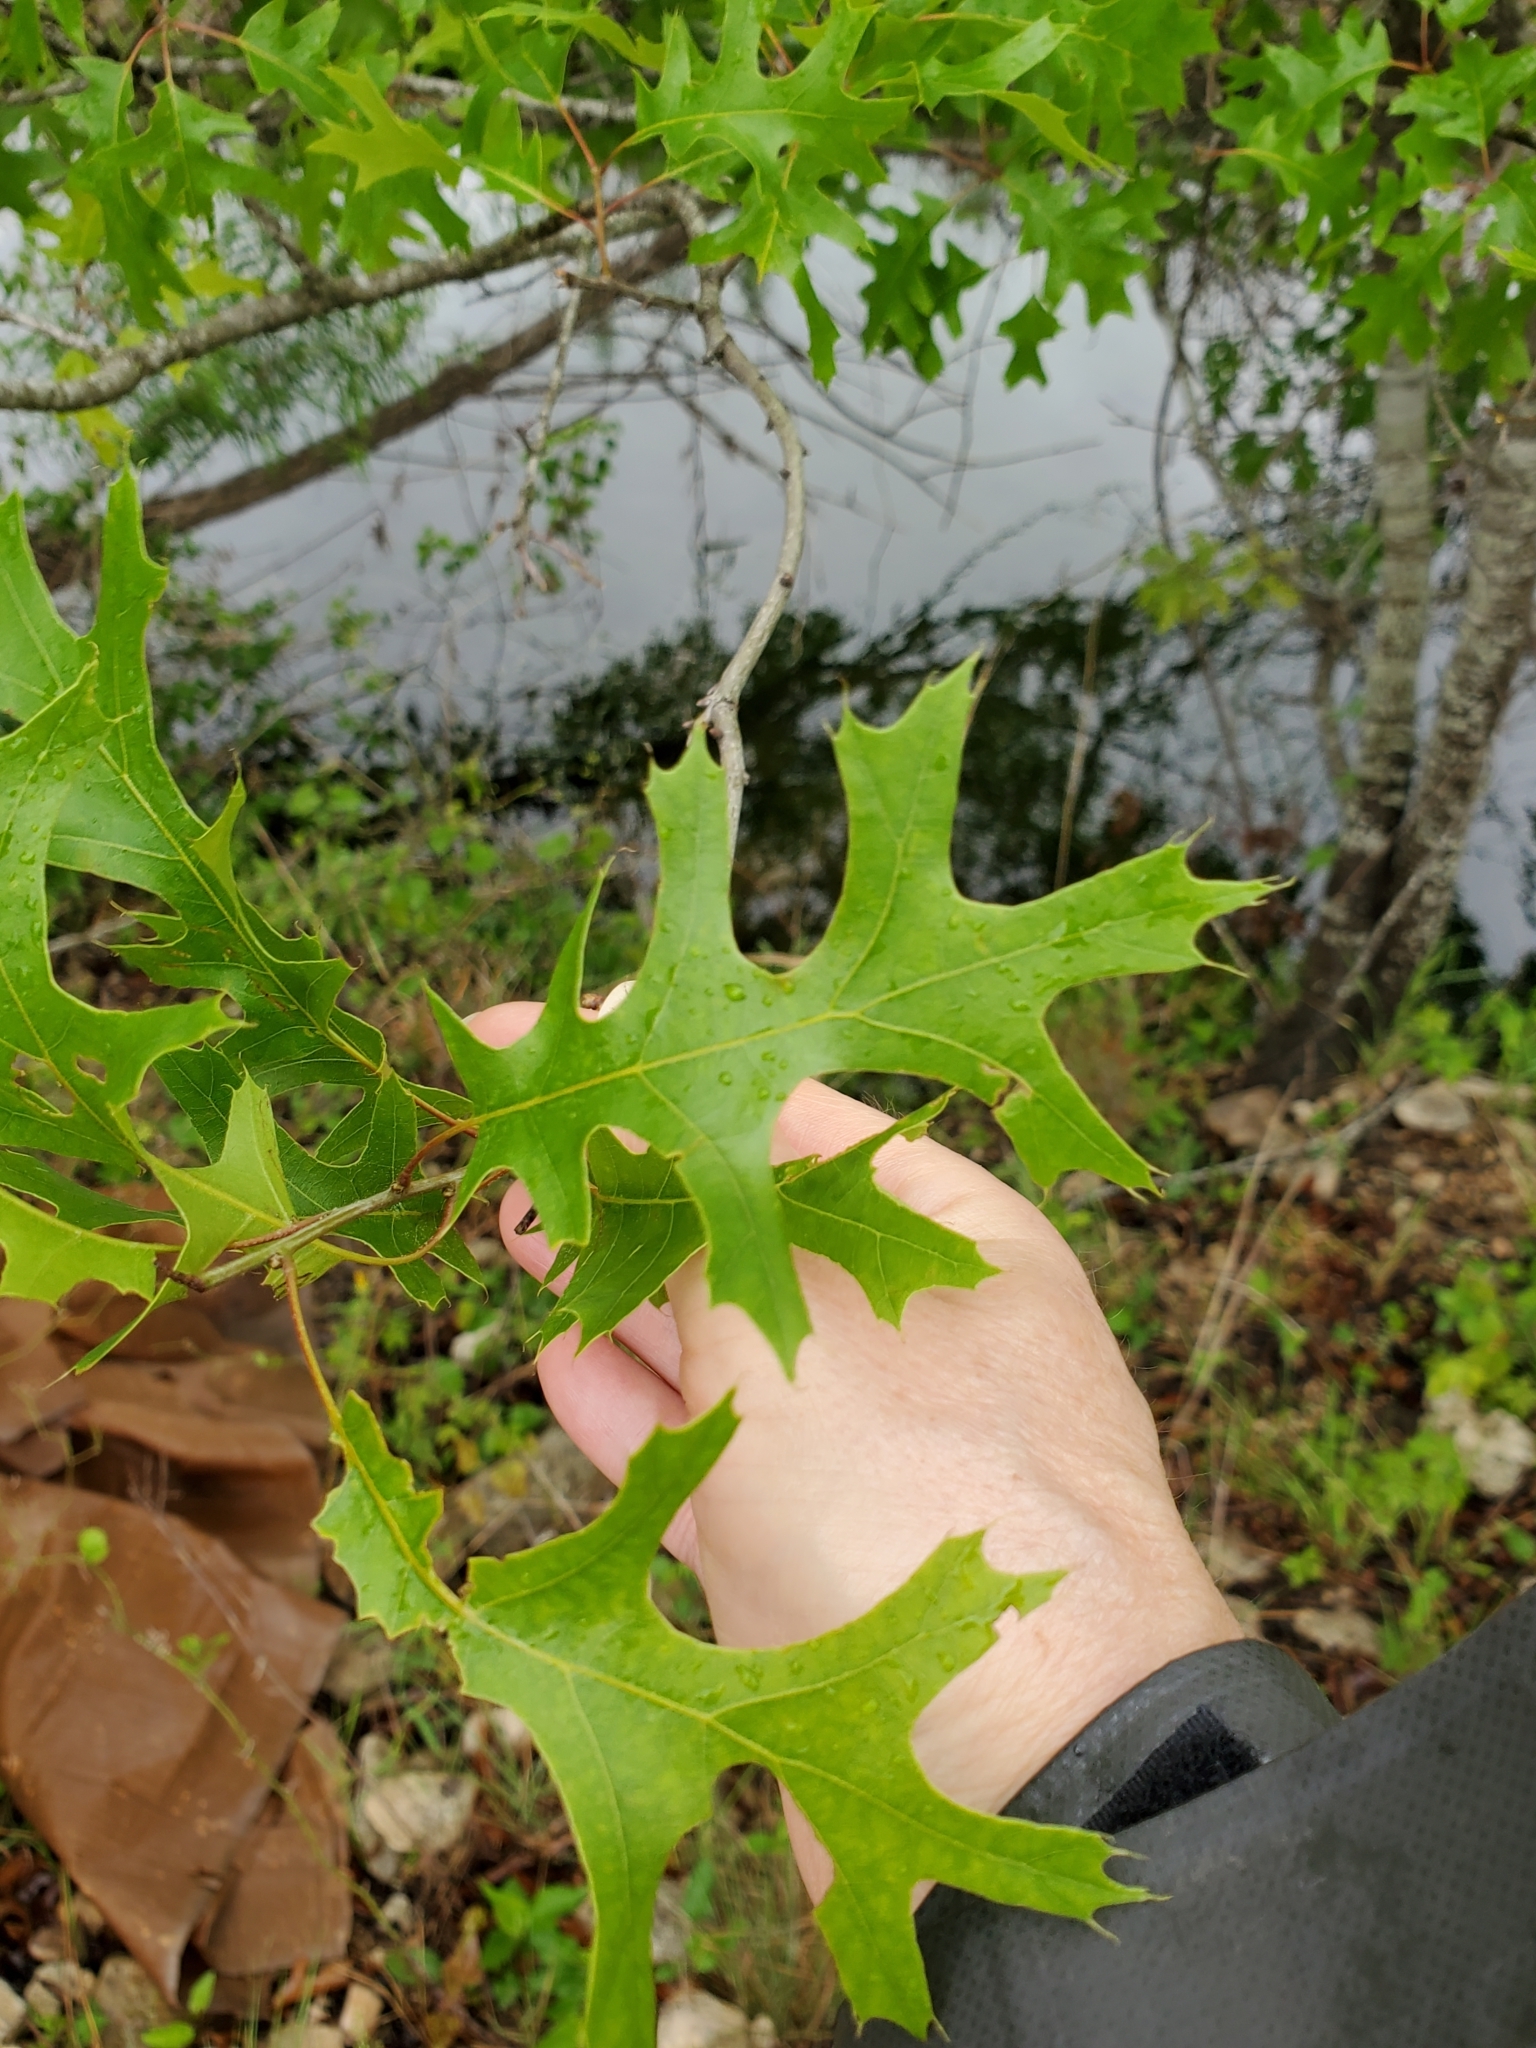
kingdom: Plantae
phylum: Tracheophyta
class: Magnoliopsida
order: Fagales
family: Fagaceae
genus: Quercus
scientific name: Quercus buckleyi
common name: Buckley oak
